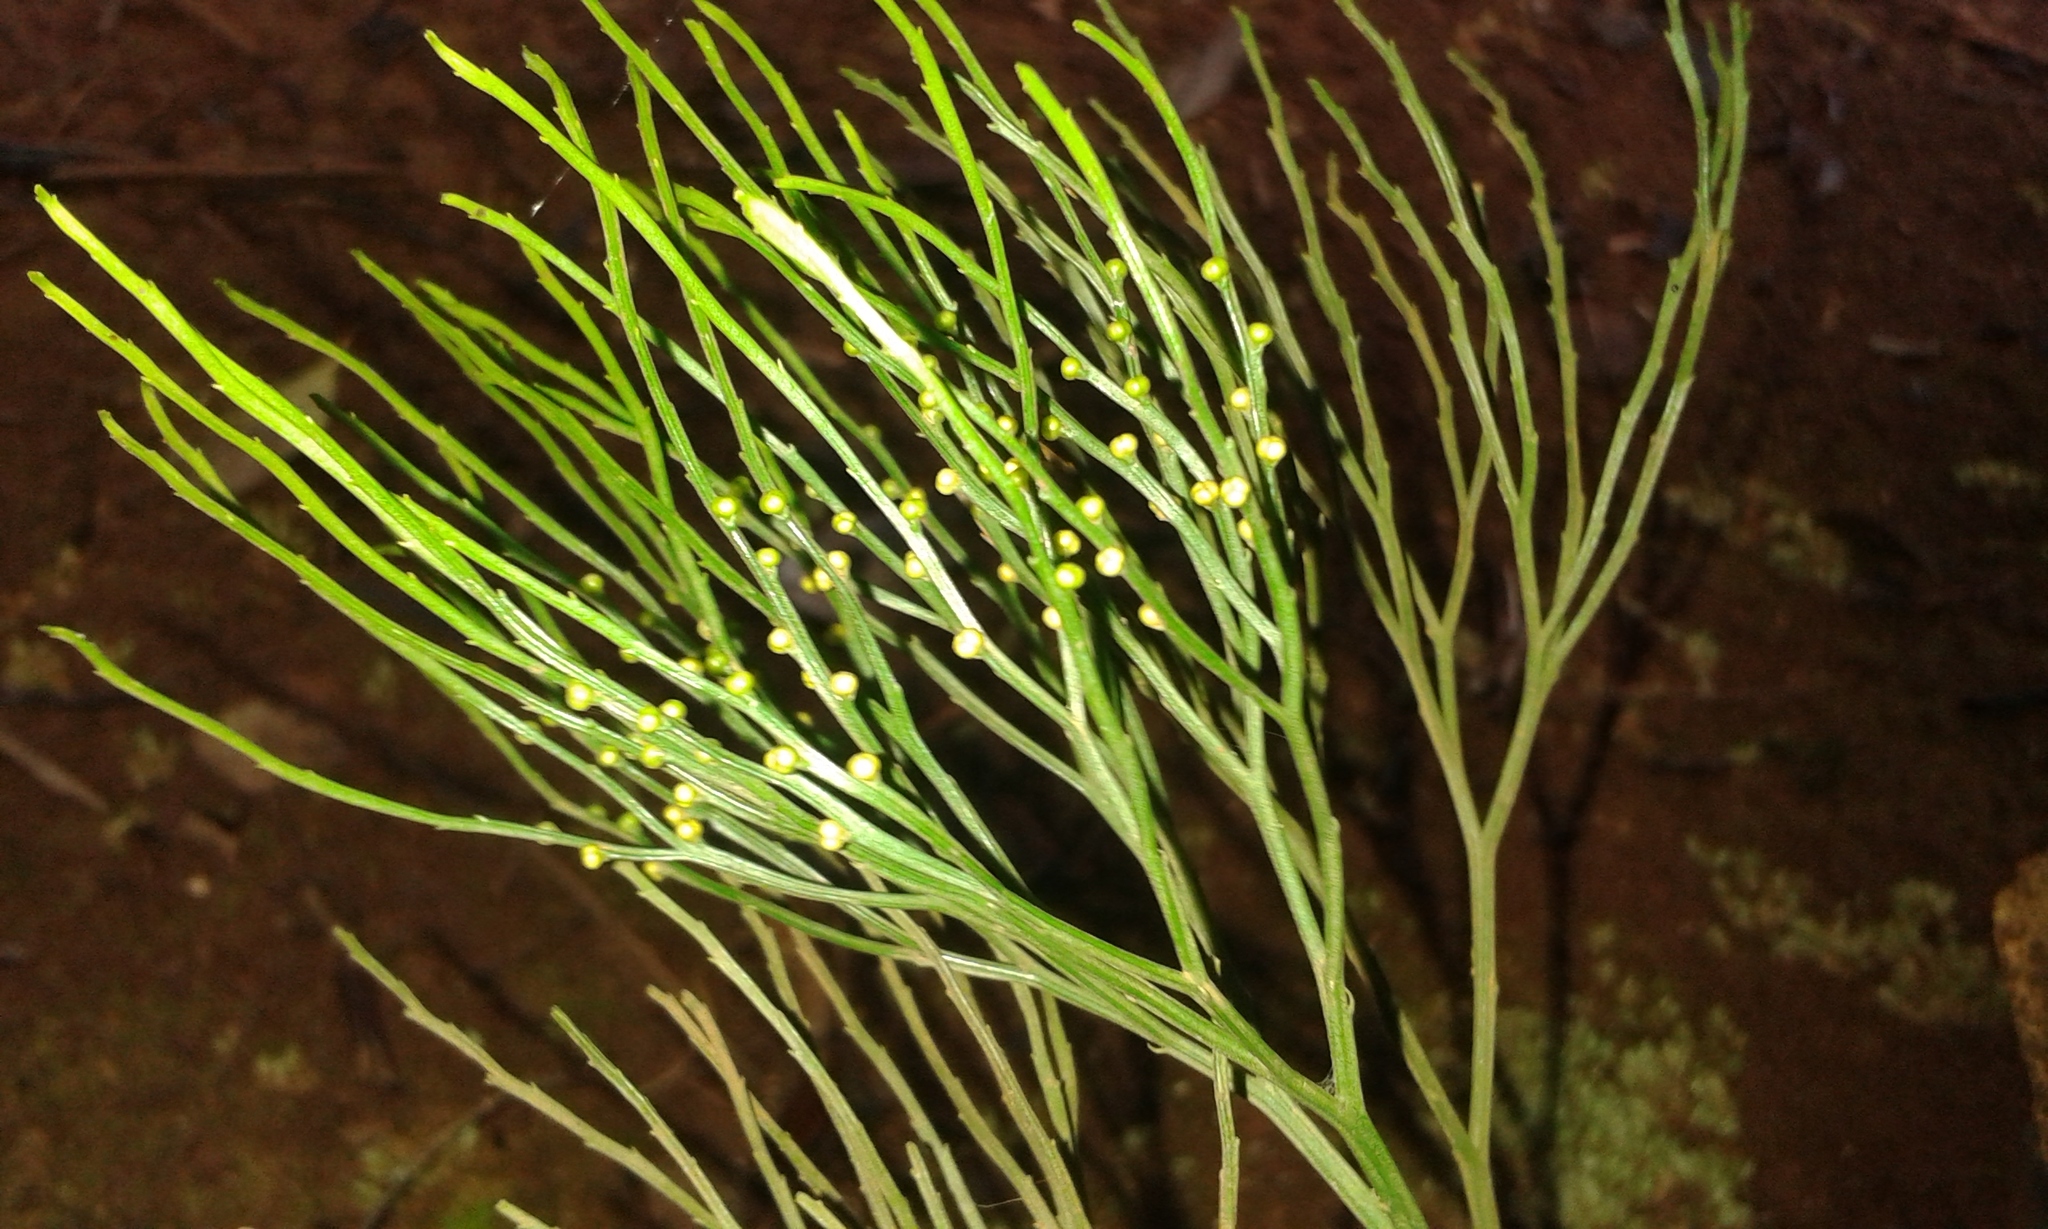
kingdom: Plantae
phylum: Tracheophyta
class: Polypodiopsida
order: Psilotales
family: Psilotaceae
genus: Psilotum
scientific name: Psilotum nudum
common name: Skeleton fork fern
